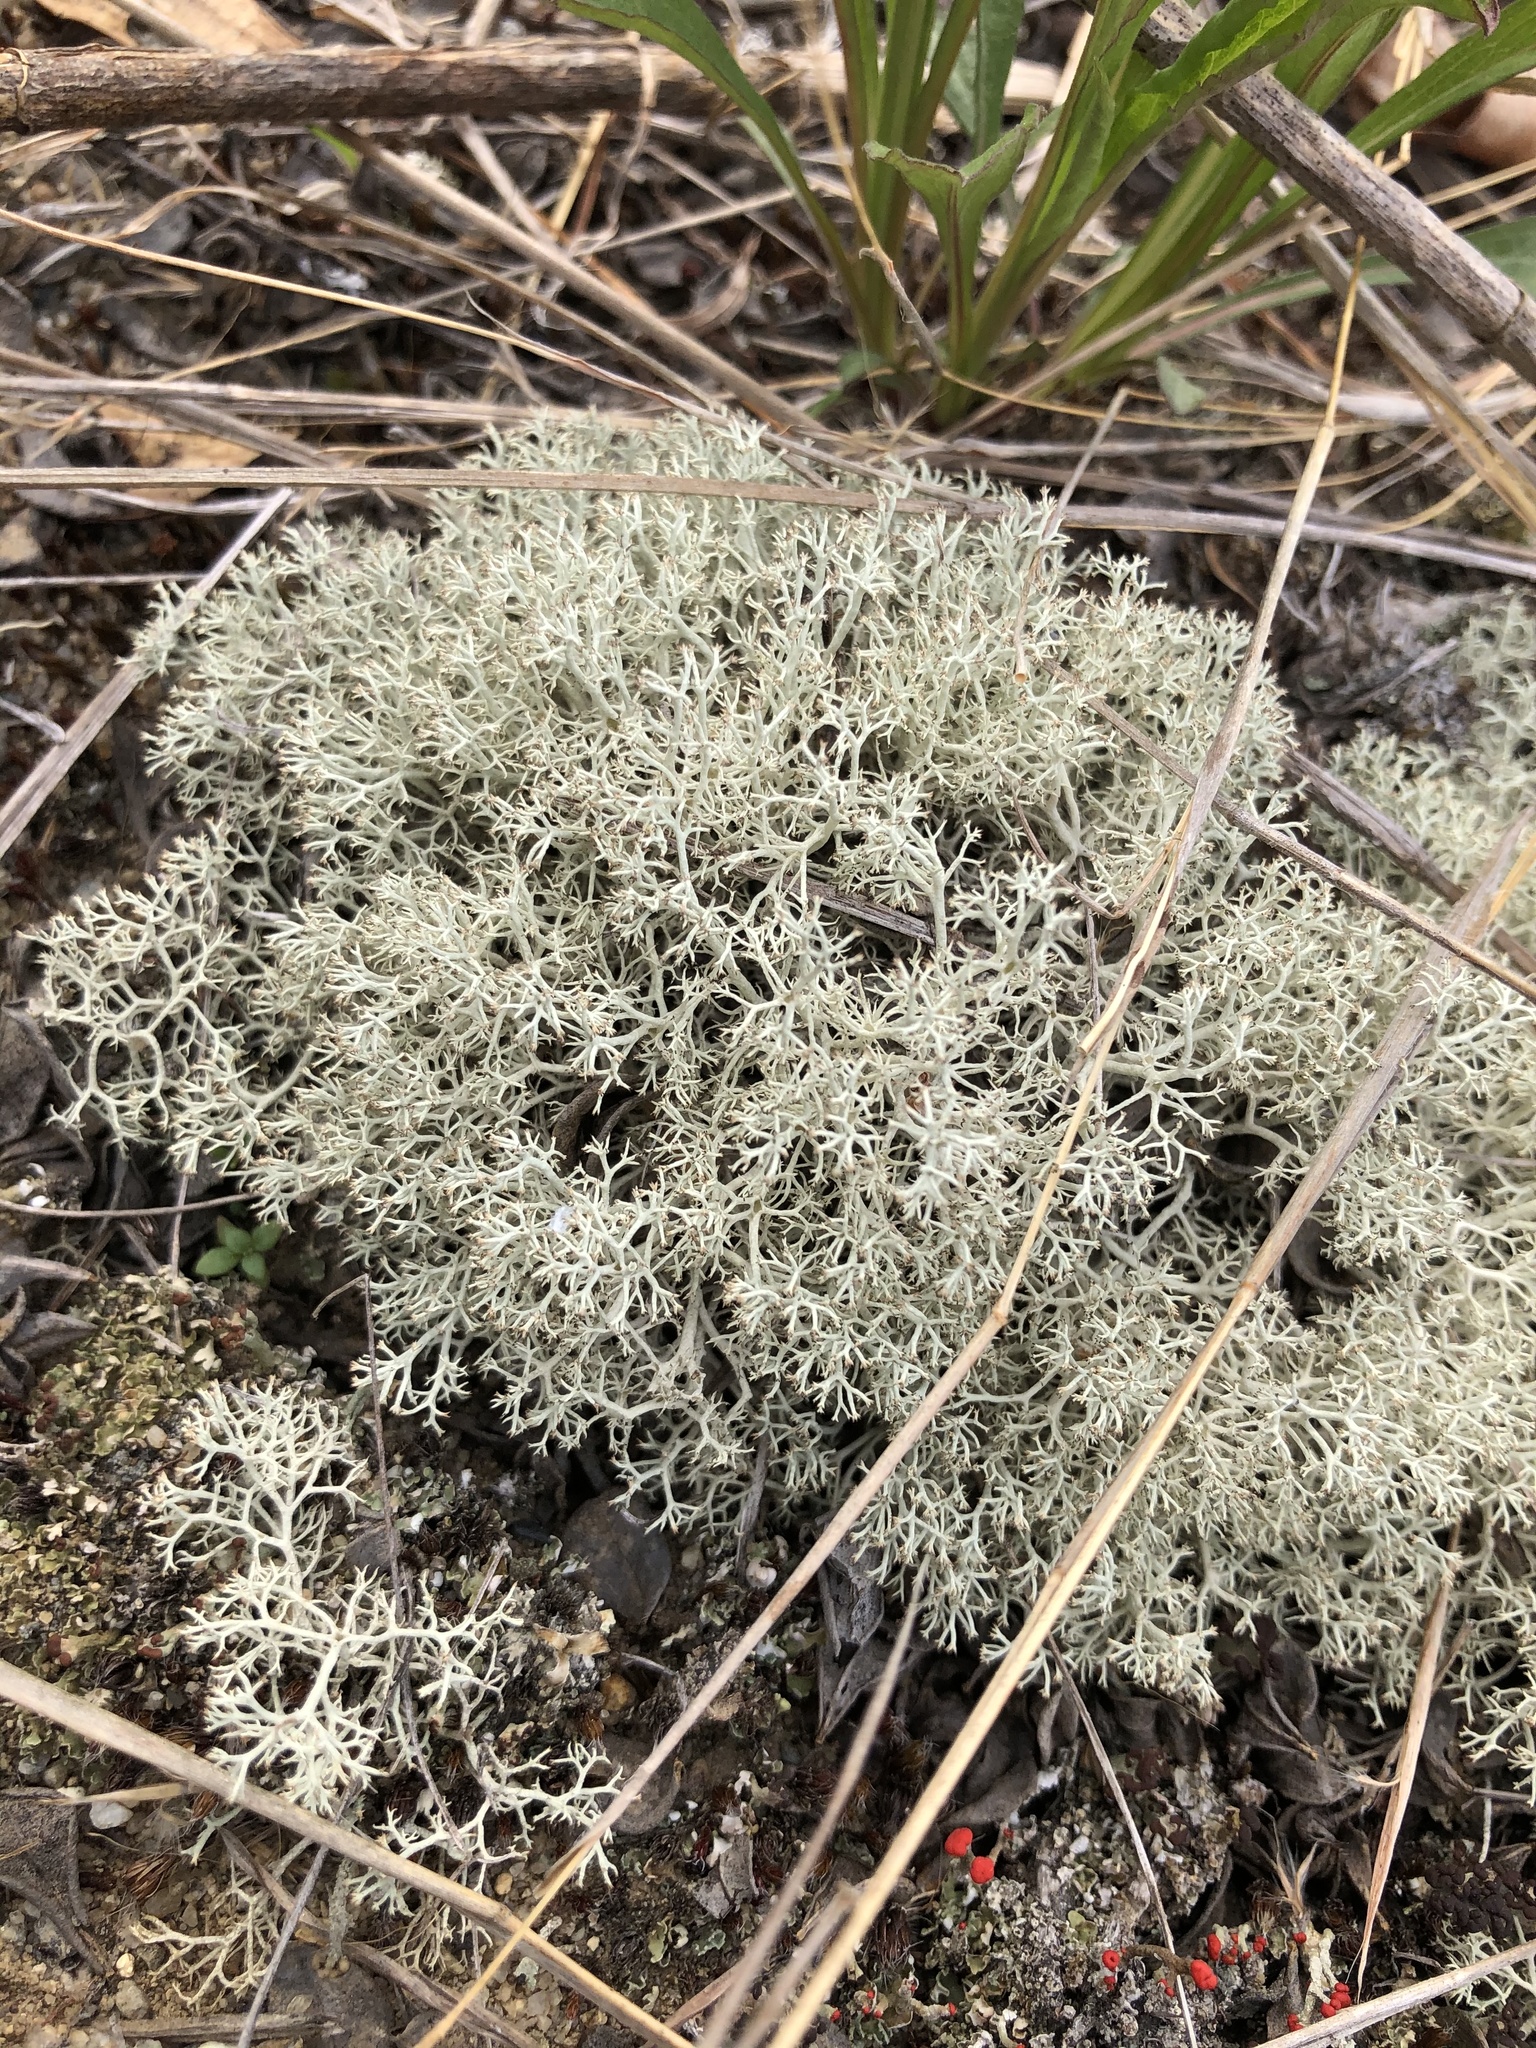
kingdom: Fungi
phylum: Ascomycota
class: Lecanoromycetes
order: Lecanorales
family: Cladoniaceae
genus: Cladonia
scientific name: Cladonia arbuscula
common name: Reindeer lichen
